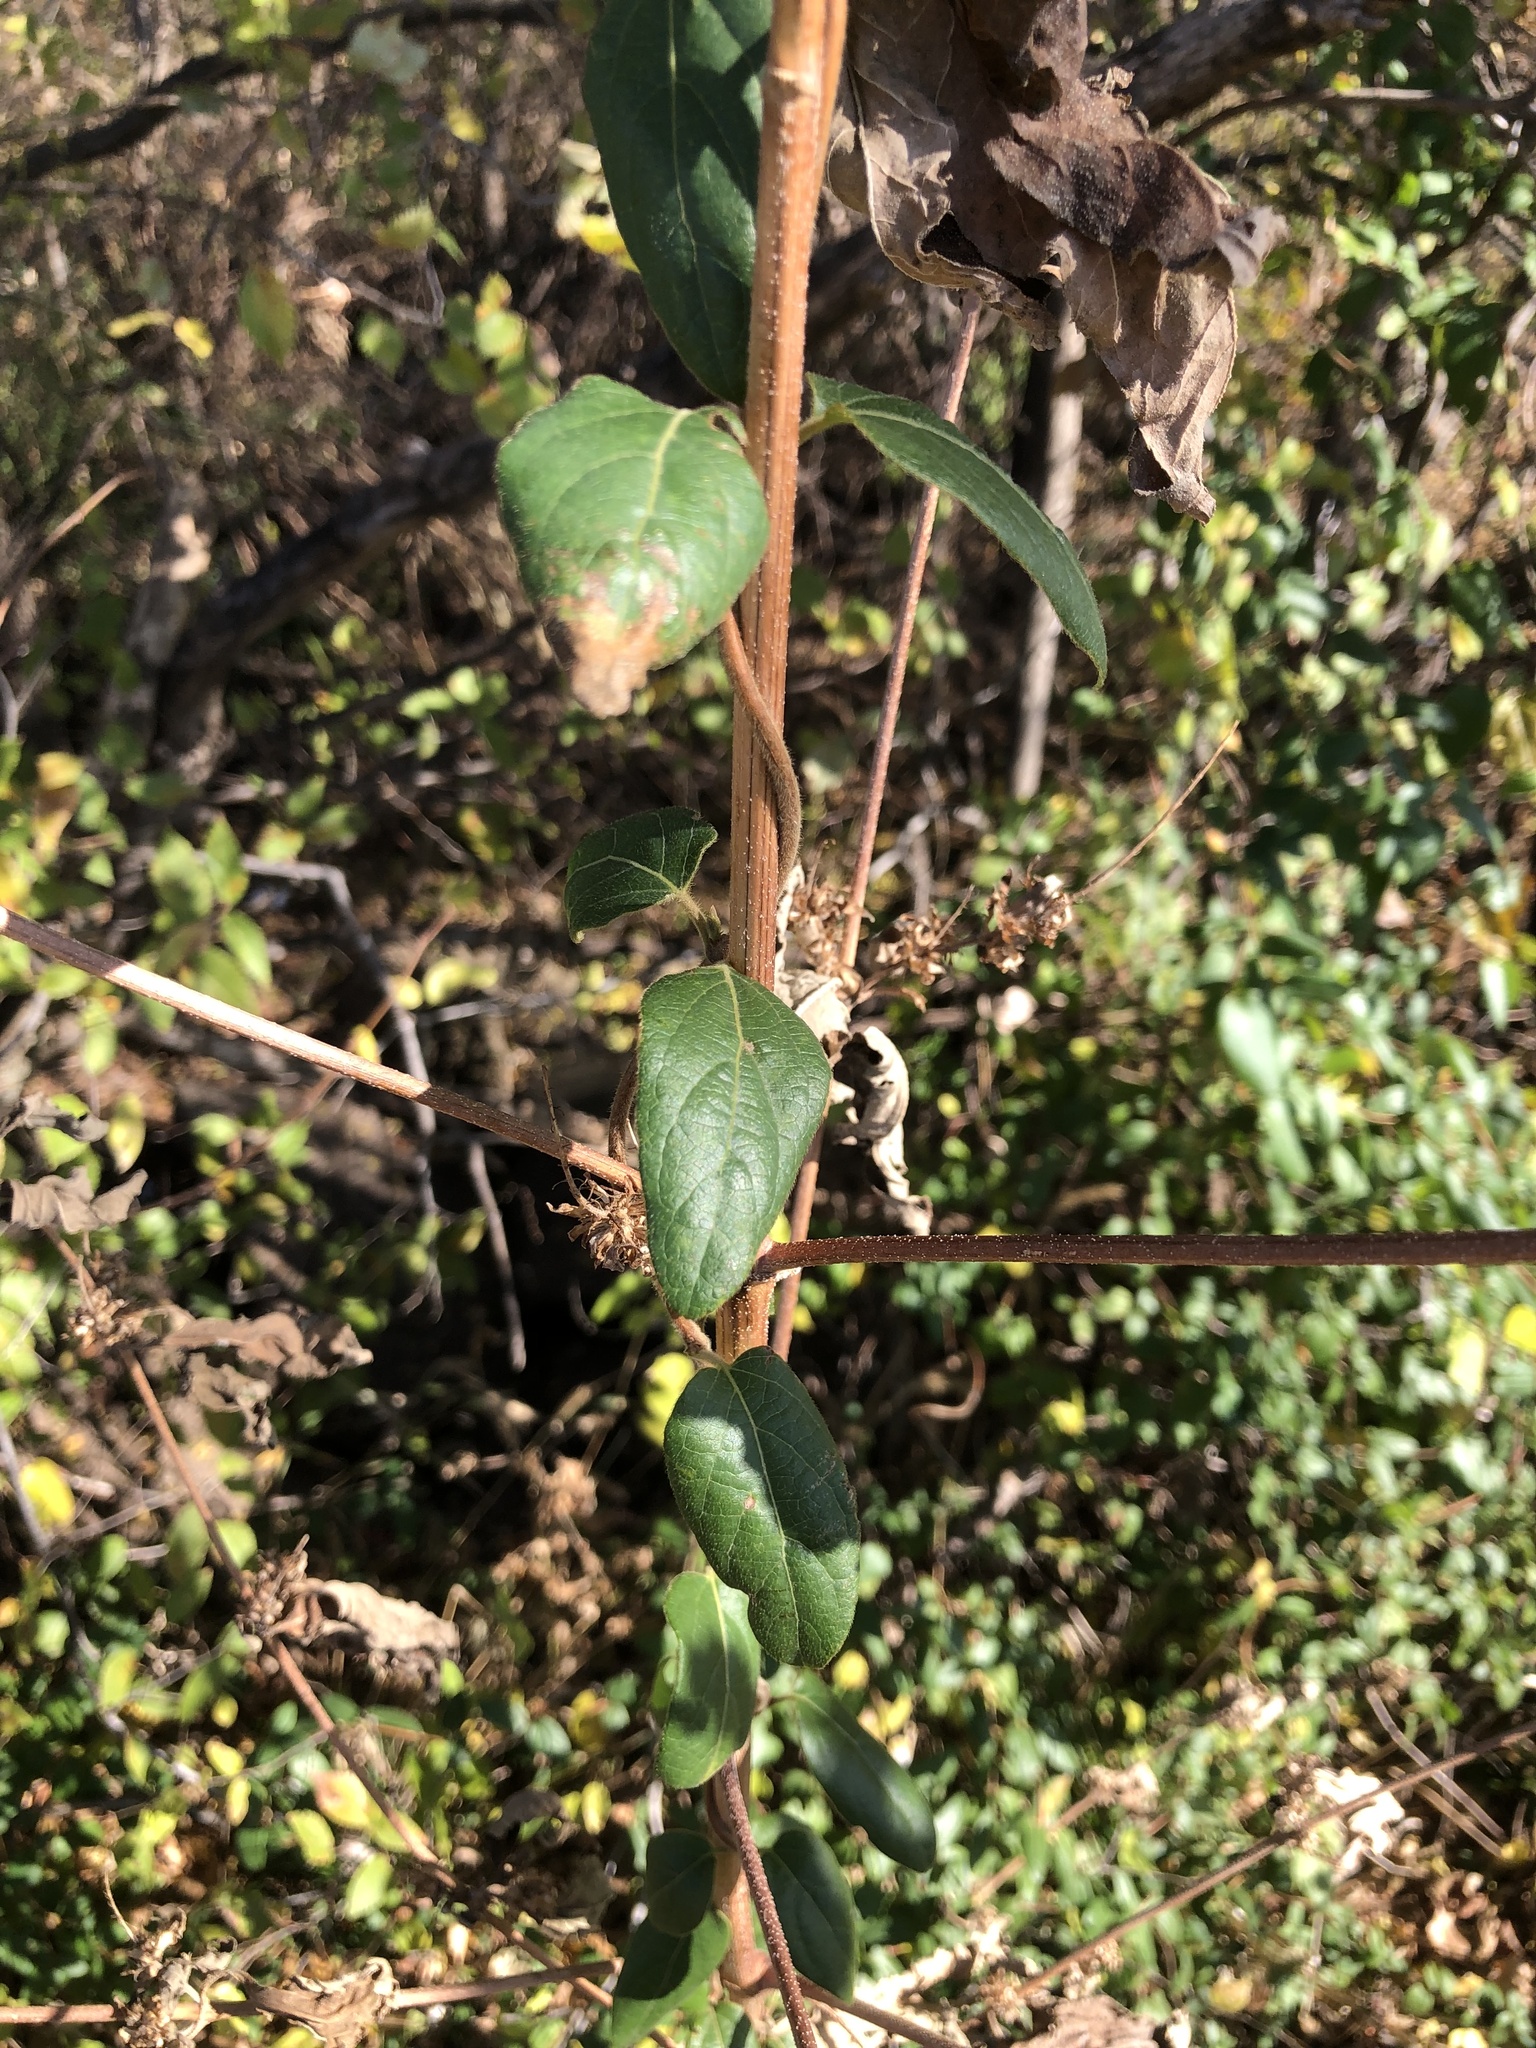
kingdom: Plantae
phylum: Tracheophyta
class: Magnoliopsida
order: Dipsacales
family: Caprifoliaceae
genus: Lonicera
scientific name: Lonicera japonica
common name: Japanese honeysuckle
